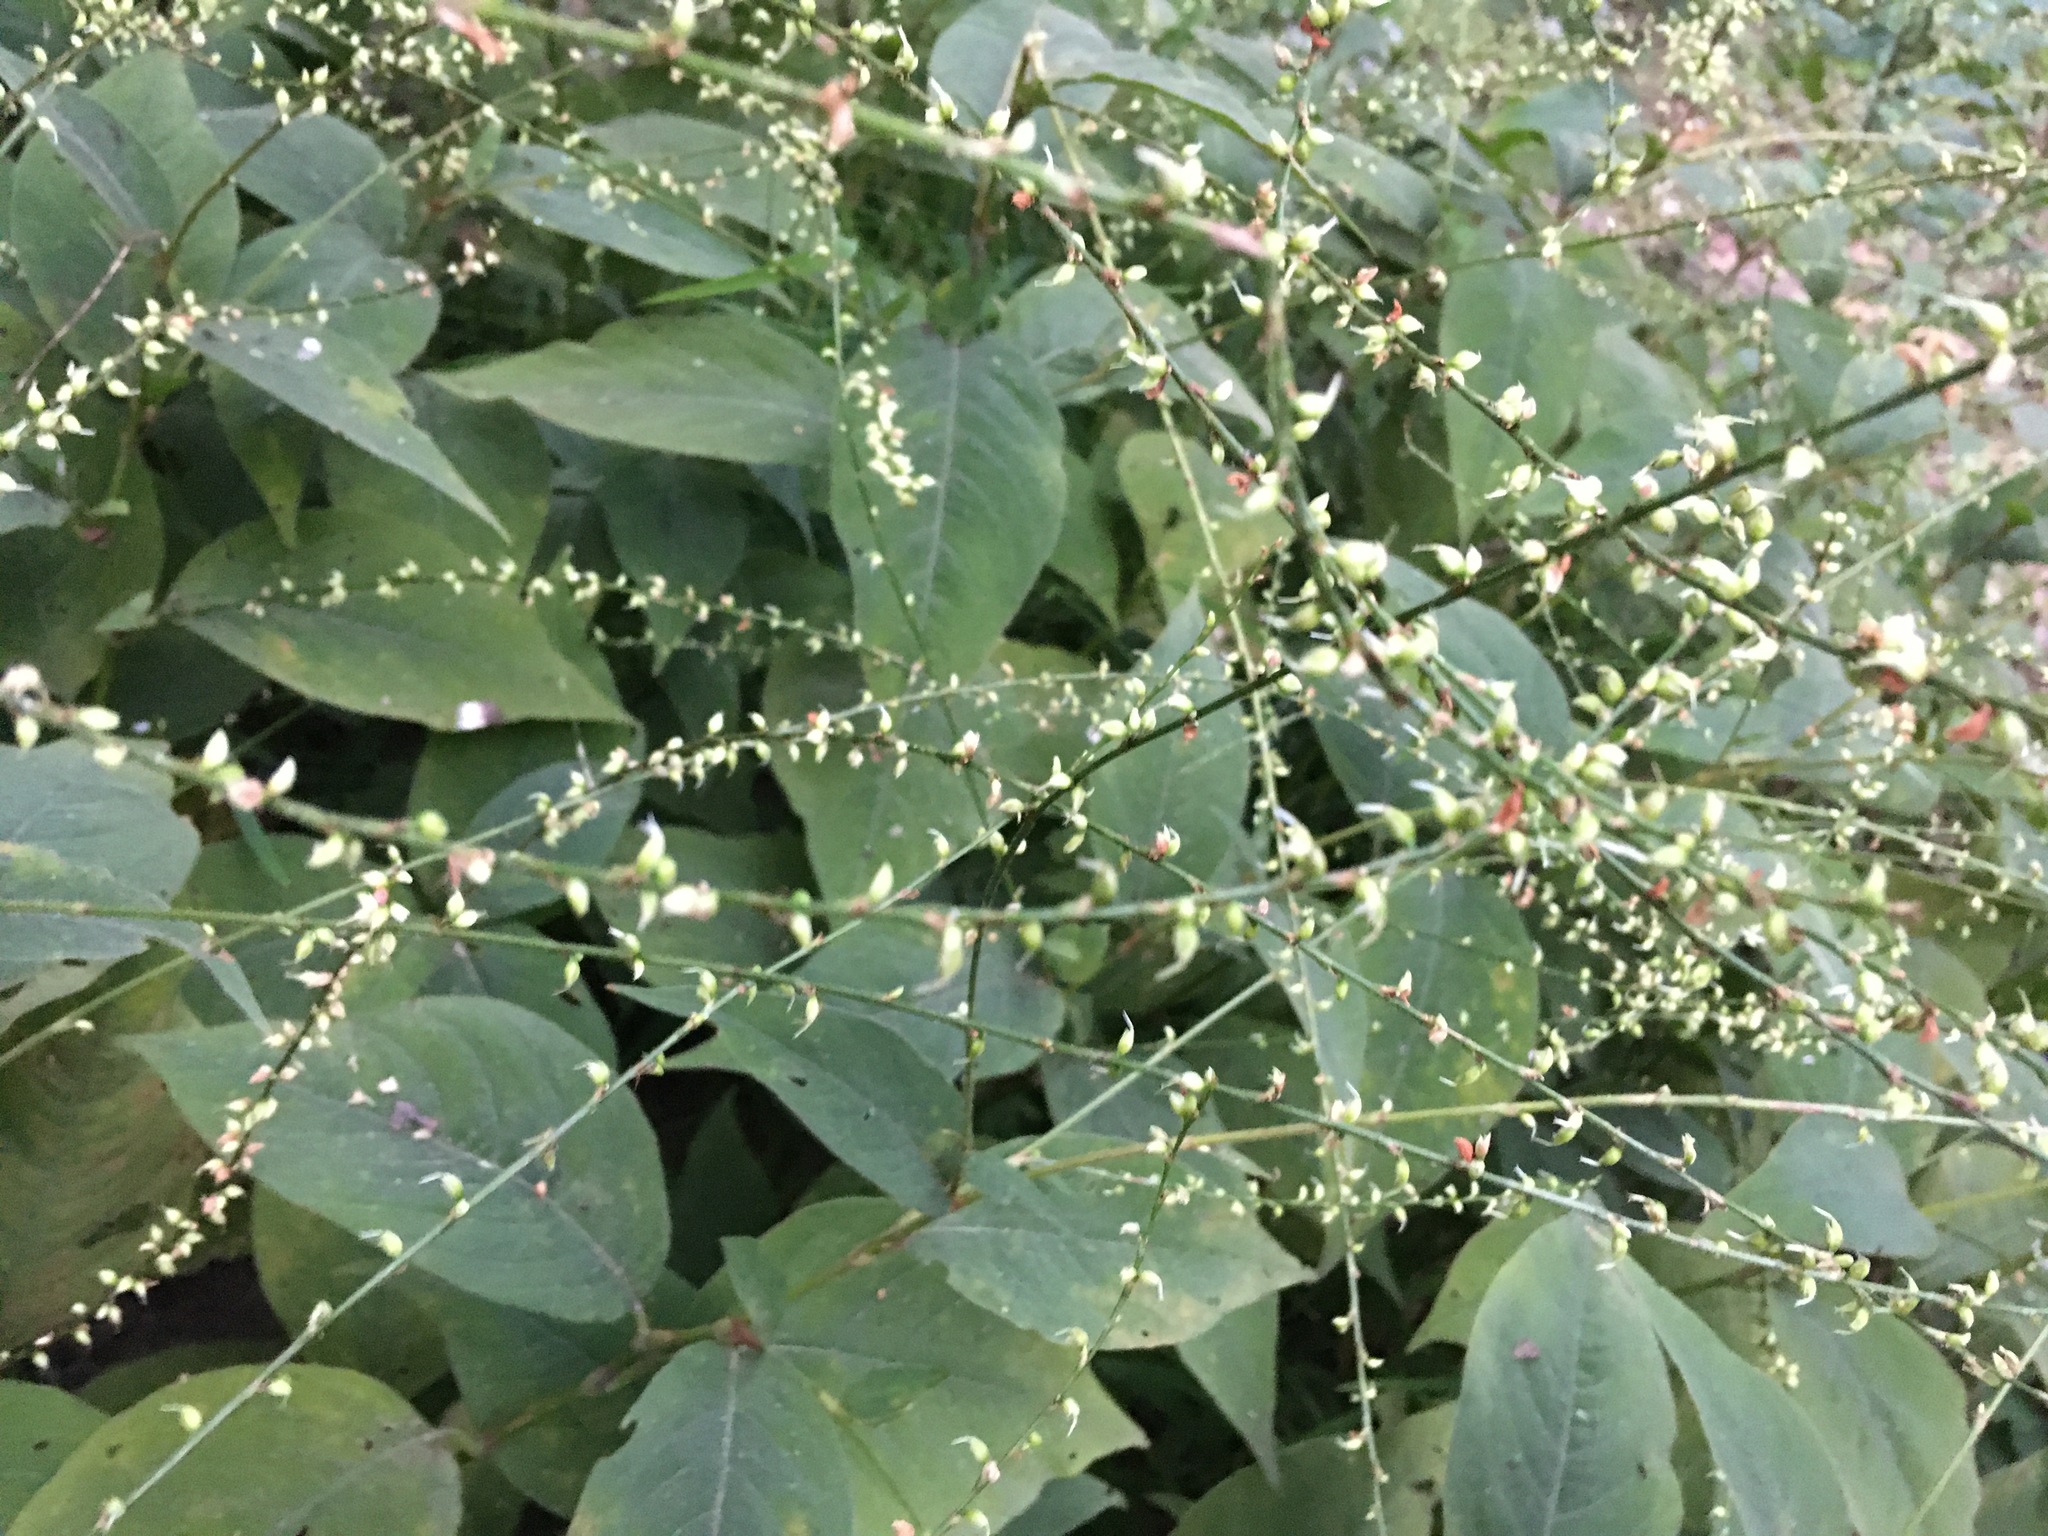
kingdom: Plantae
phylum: Tracheophyta
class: Magnoliopsida
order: Caryophyllales
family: Polygonaceae
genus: Persicaria
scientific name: Persicaria virginiana
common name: Jumpseed
